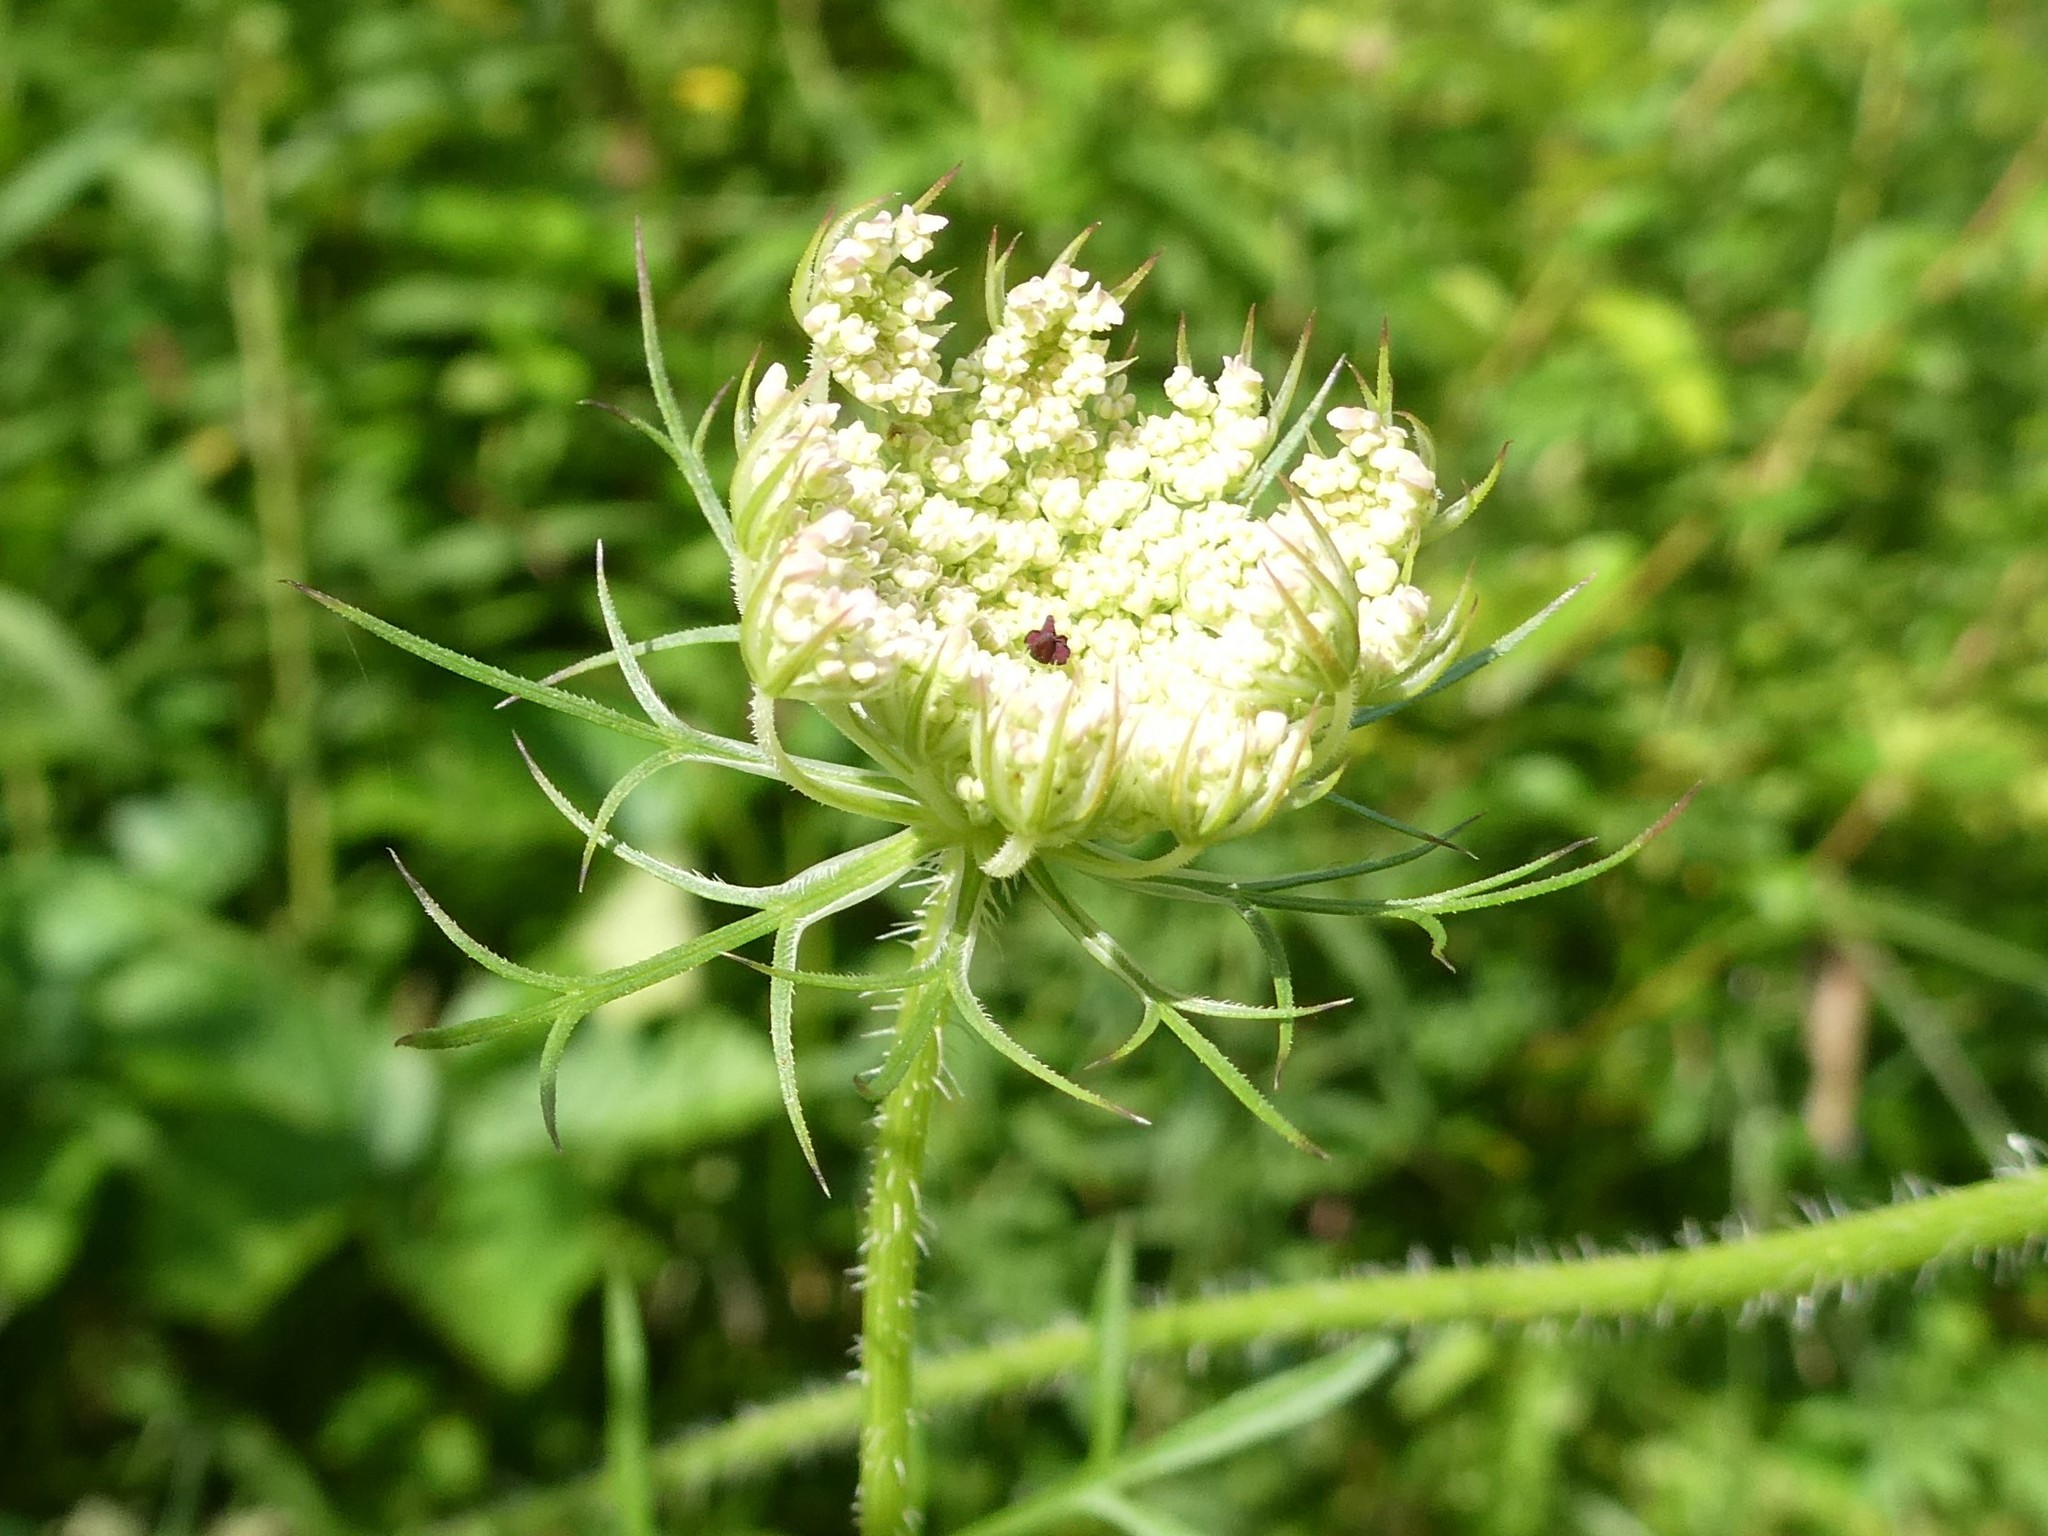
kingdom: Plantae
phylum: Tracheophyta
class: Magnoliopsida
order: Apiales
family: Apiaceae
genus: Daucus
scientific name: Daucus carota
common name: Wild carrot
